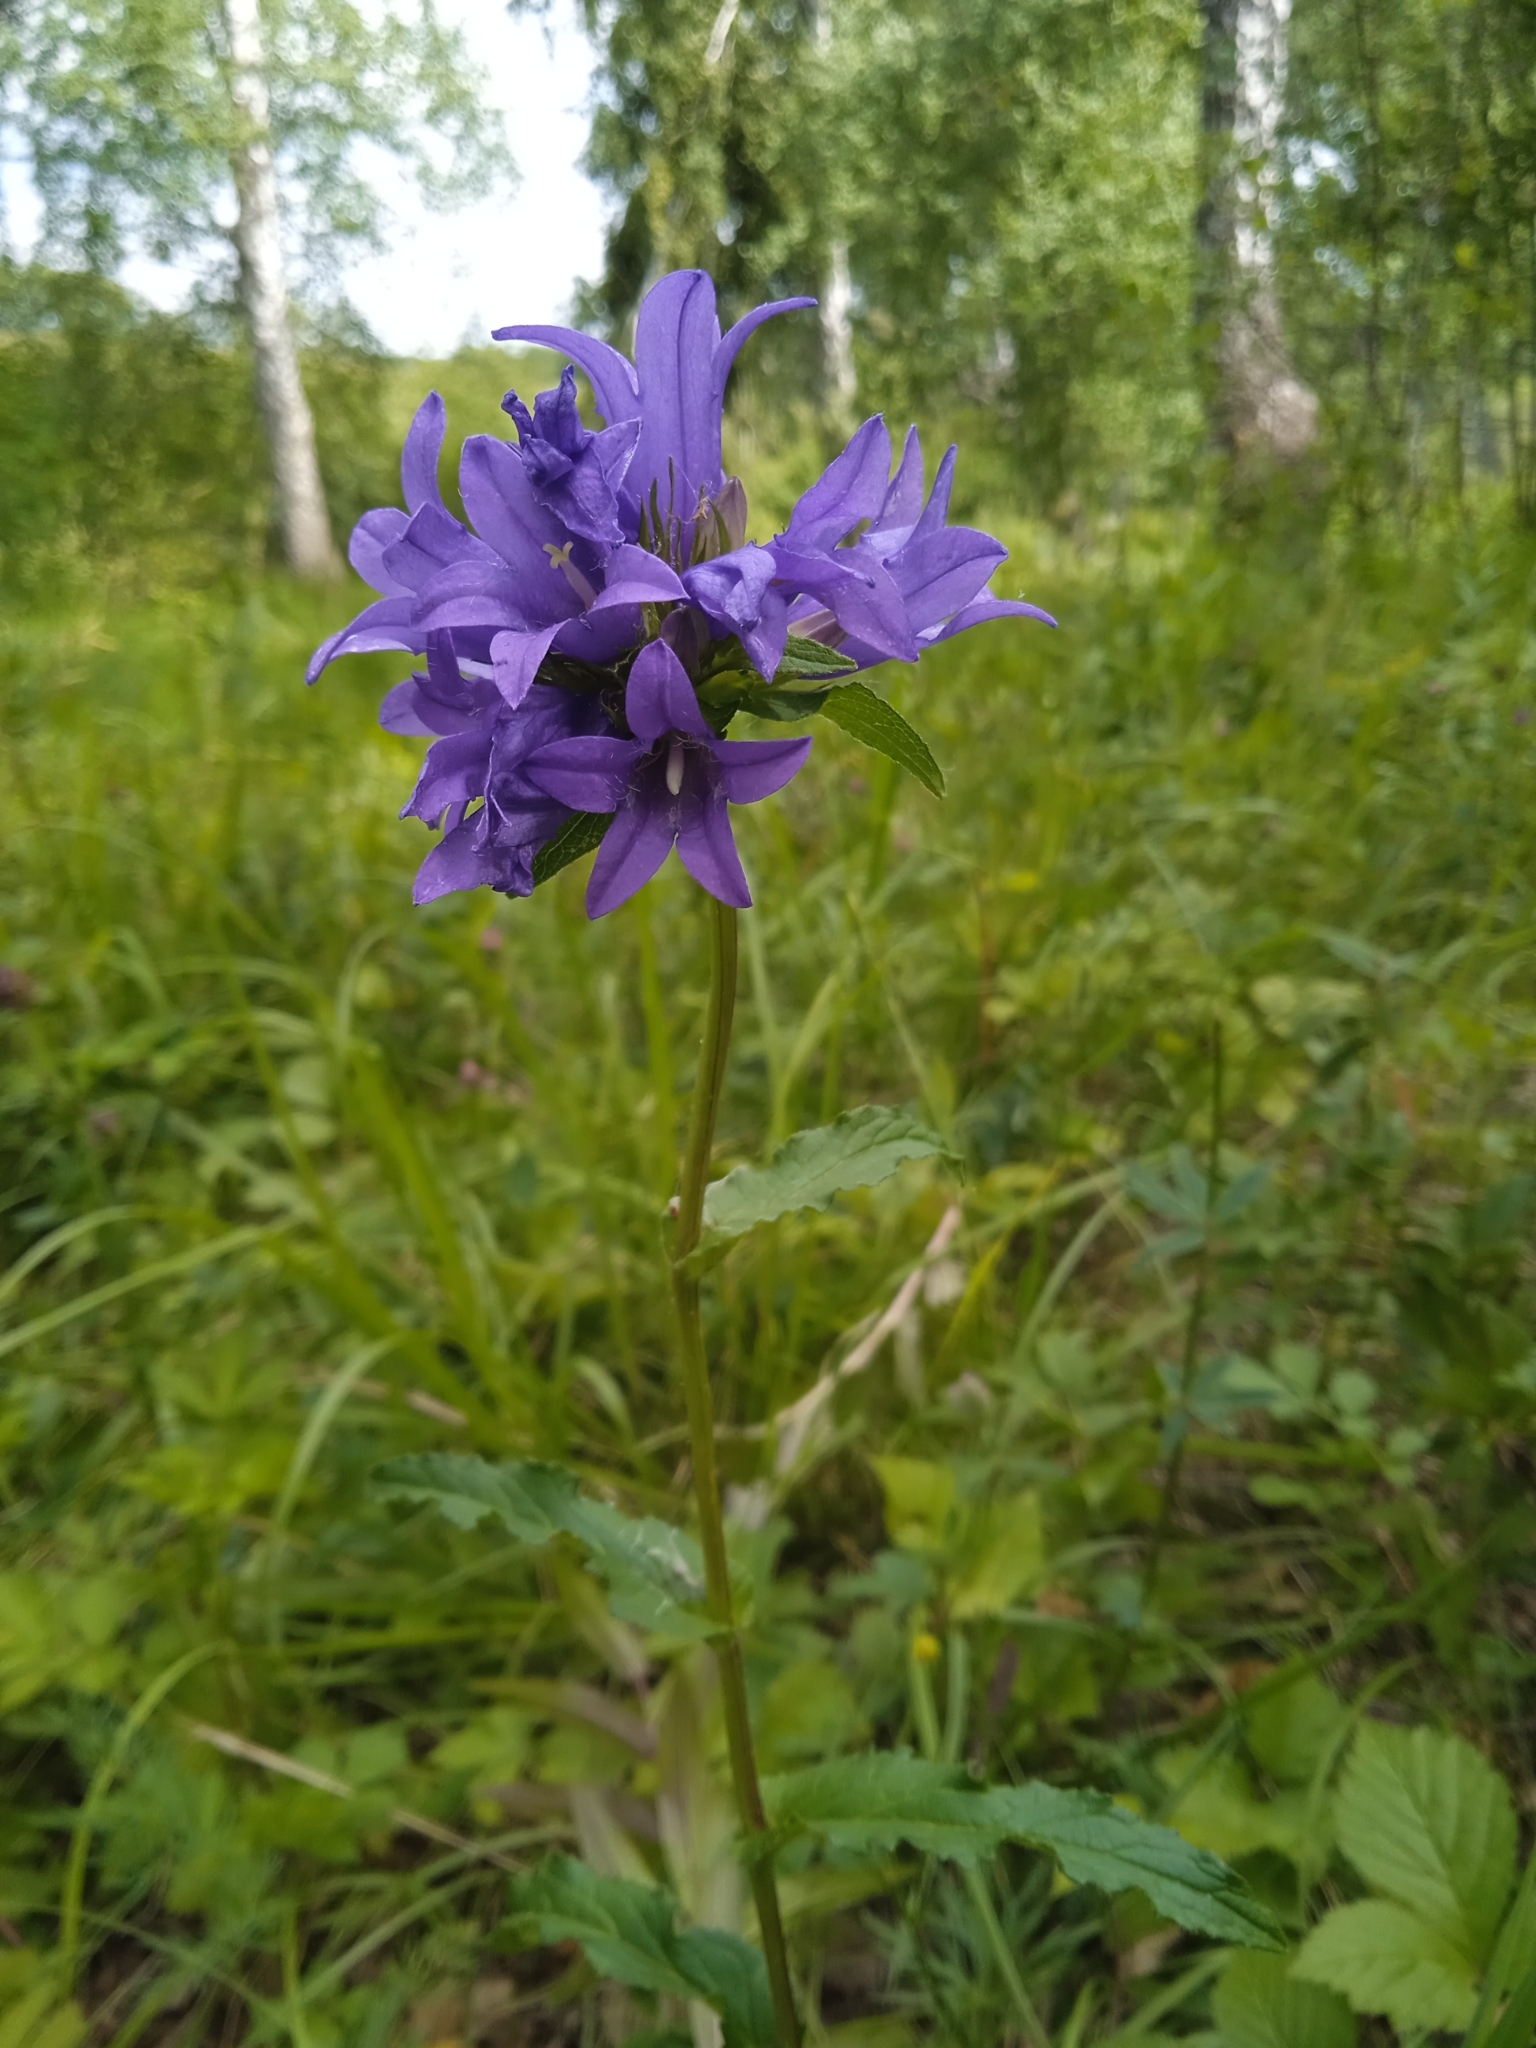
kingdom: Plantae
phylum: Tracheophyta
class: Magnoliopsida
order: Asterales
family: Campanulaceae
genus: Campanula
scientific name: Campanula glomerata
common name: Clustered bellflower
